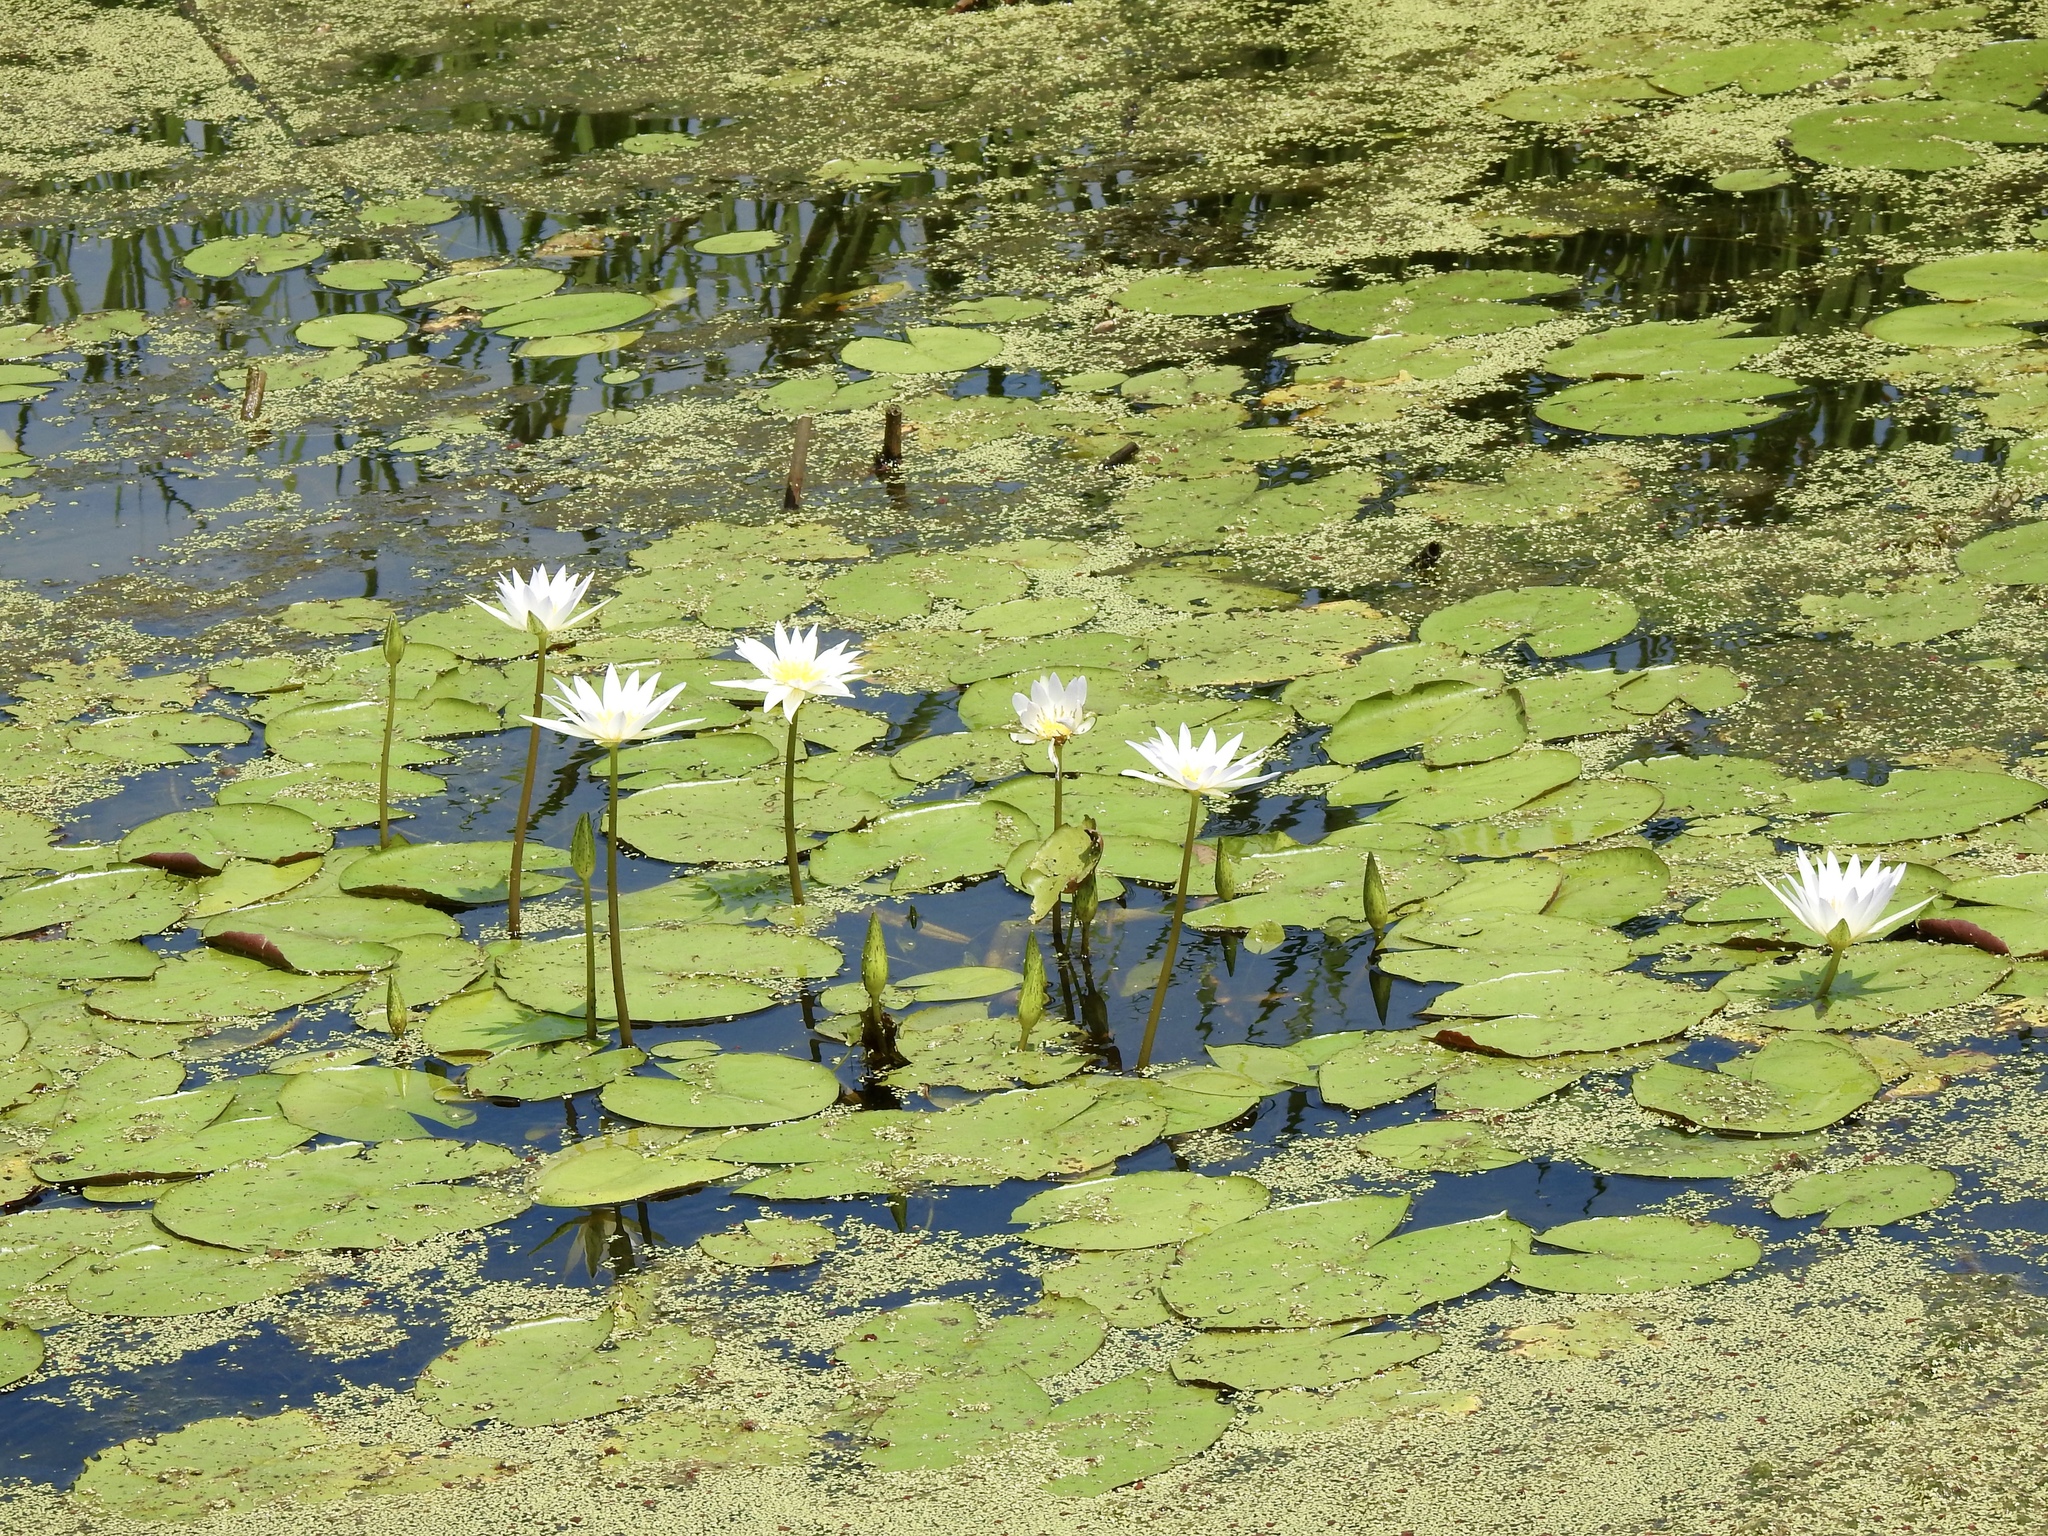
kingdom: Plantae
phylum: Tracheophyta
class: Magnoliopsida
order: Nymphaeales
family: Nymphaeaceae
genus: Nymphaea
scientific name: Nymphaea elegans
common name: Blue water-lily
